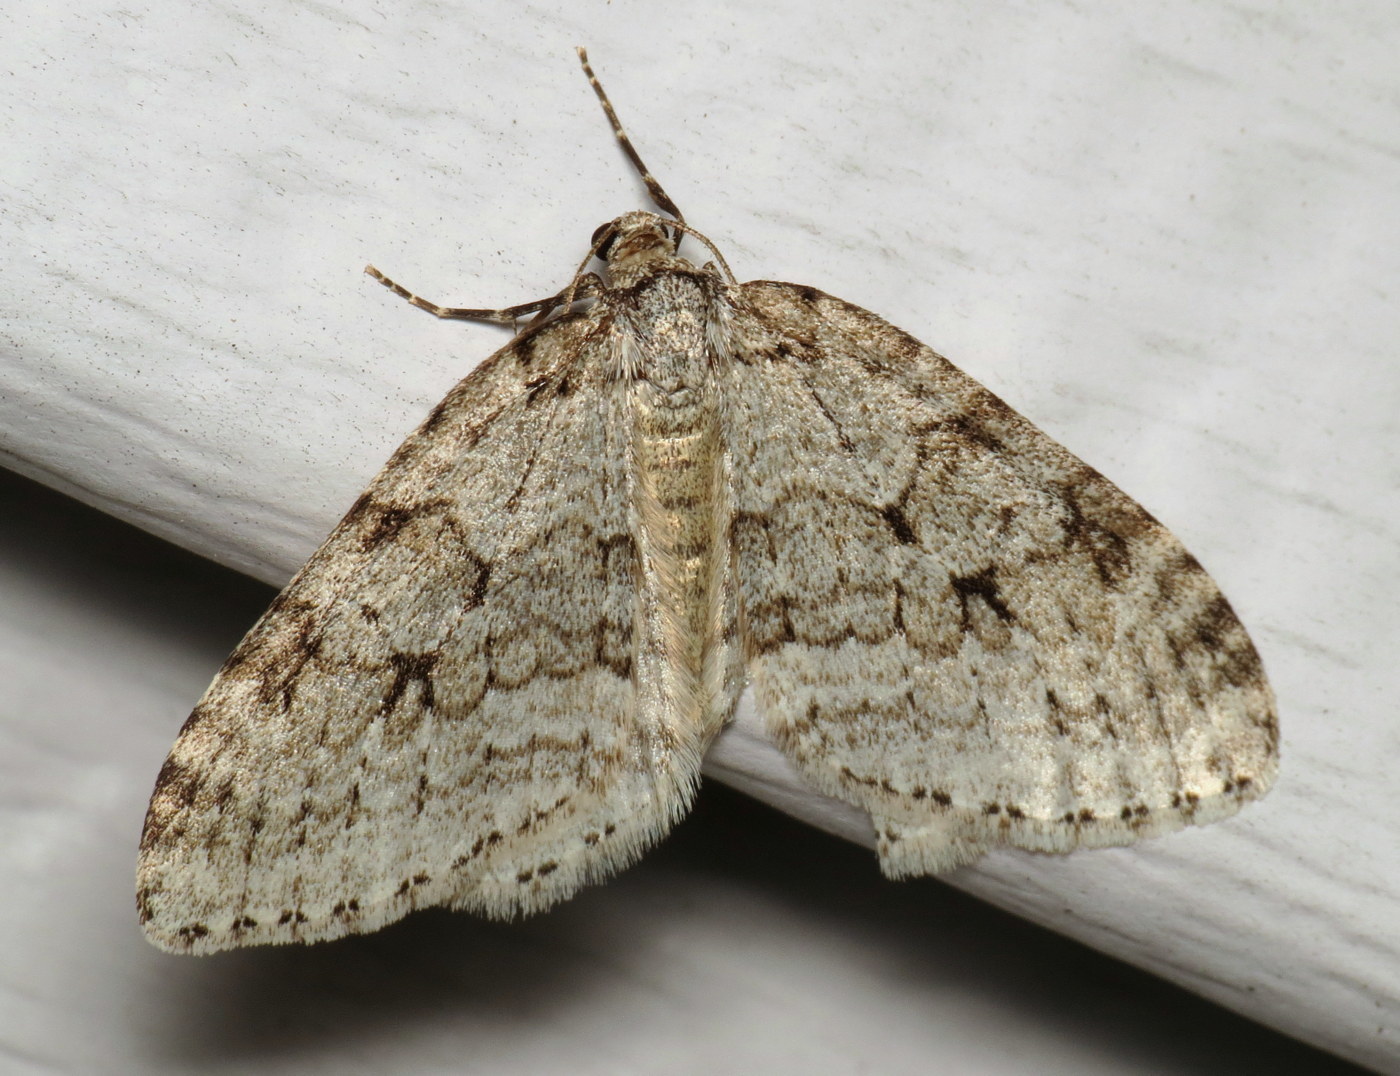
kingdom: Animalia
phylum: Arthropoda
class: Insecta
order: Lepidoptera
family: Geometridae
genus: Epirrita
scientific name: Epirrita autumnata
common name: Autumnal moth
